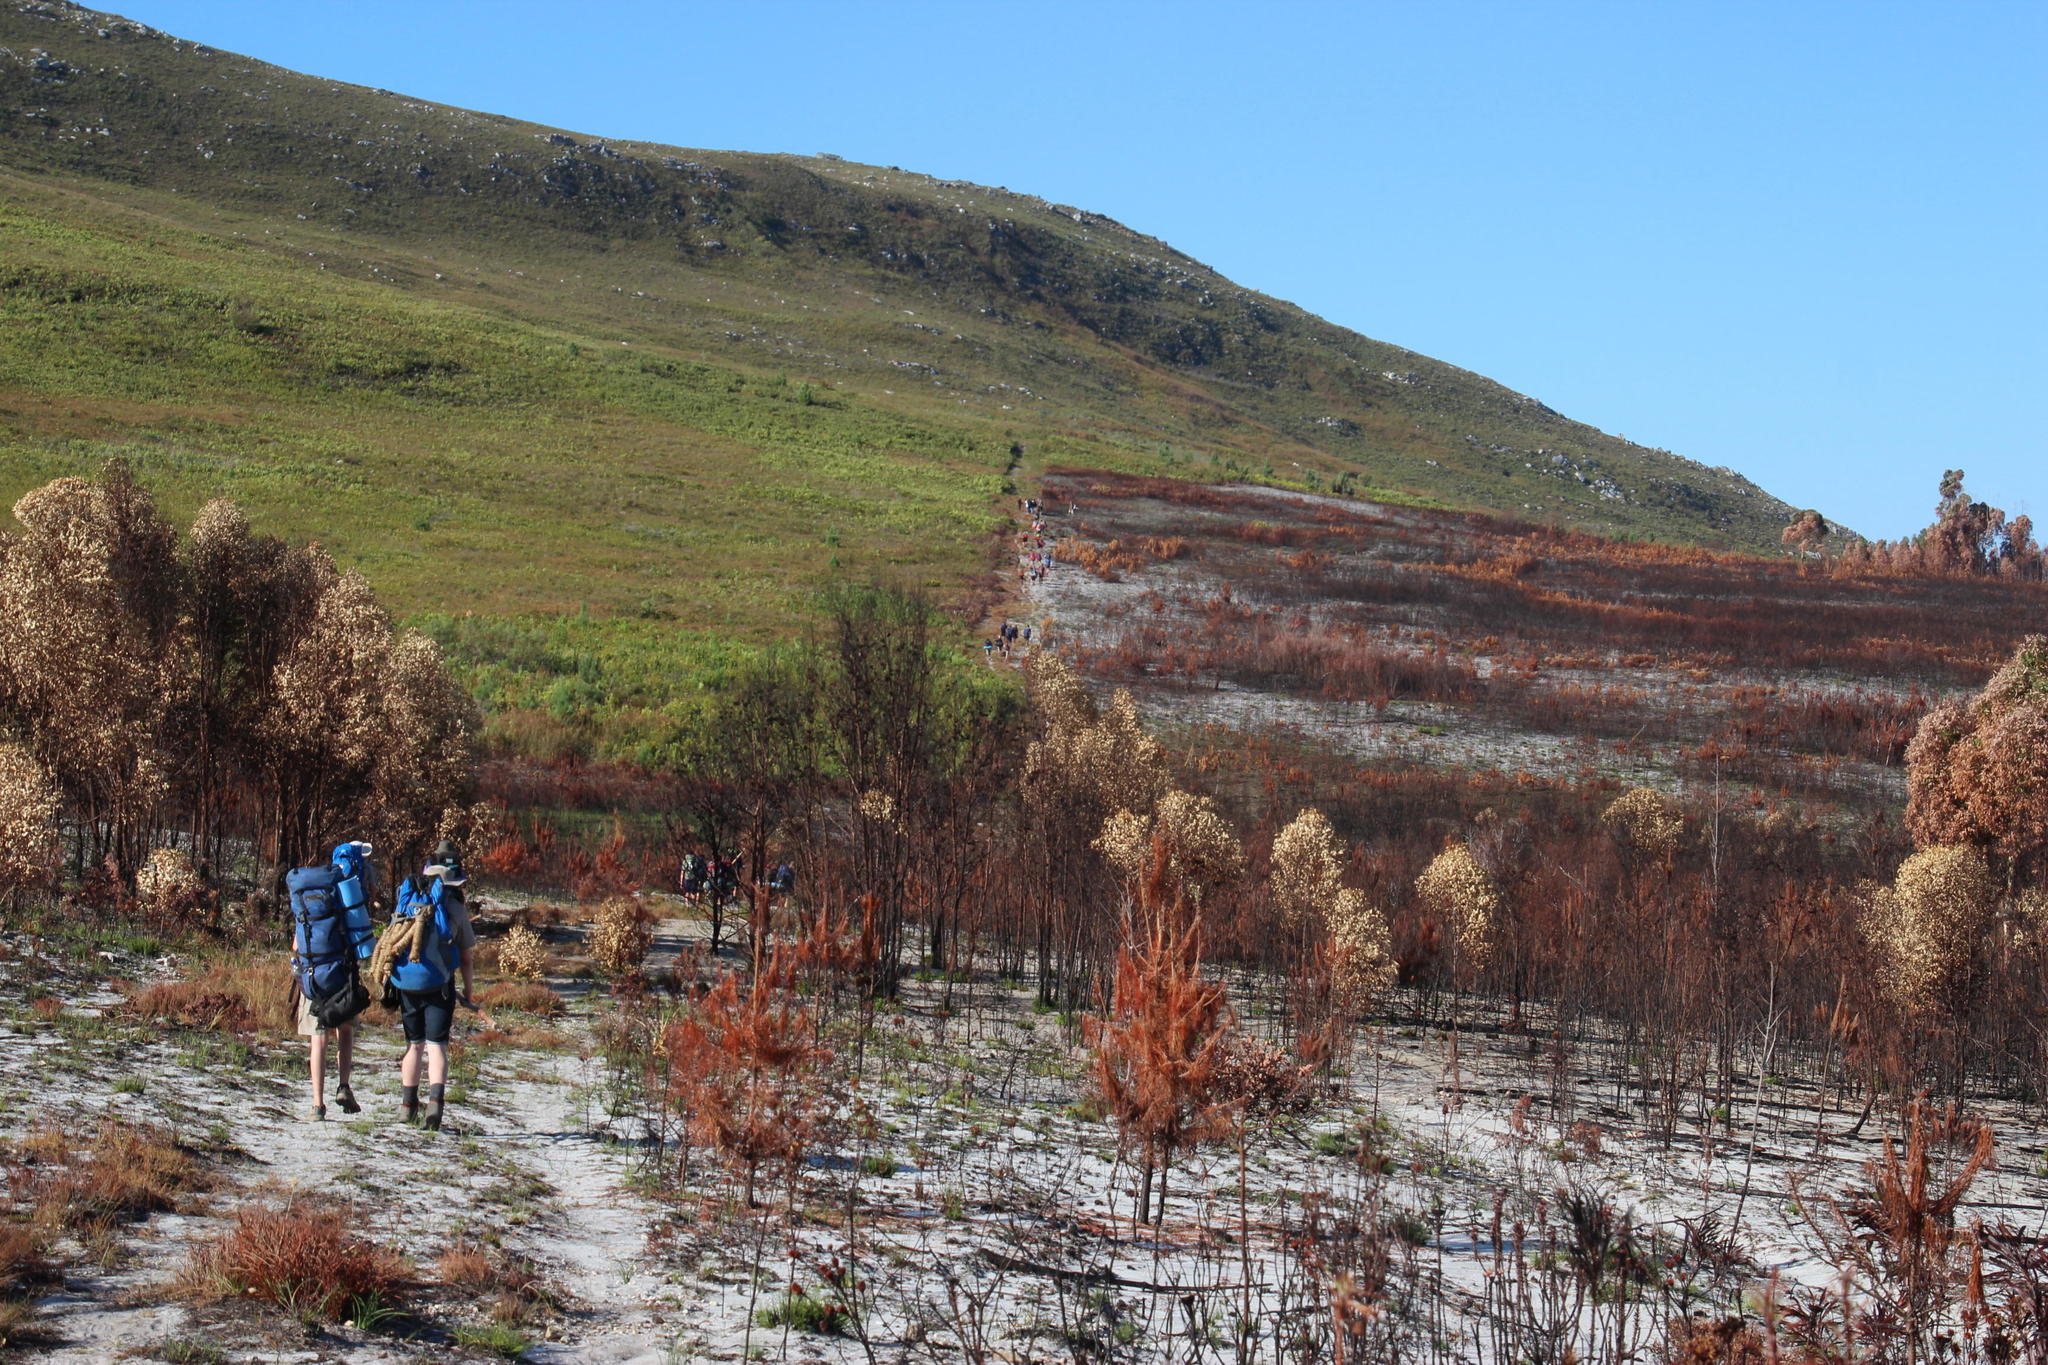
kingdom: Plantae
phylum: Tracheophyta
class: Magnoliopsida
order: Myrtales
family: Myrtaceae
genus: Eucalyptus
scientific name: Eucalyptus conferruminata
